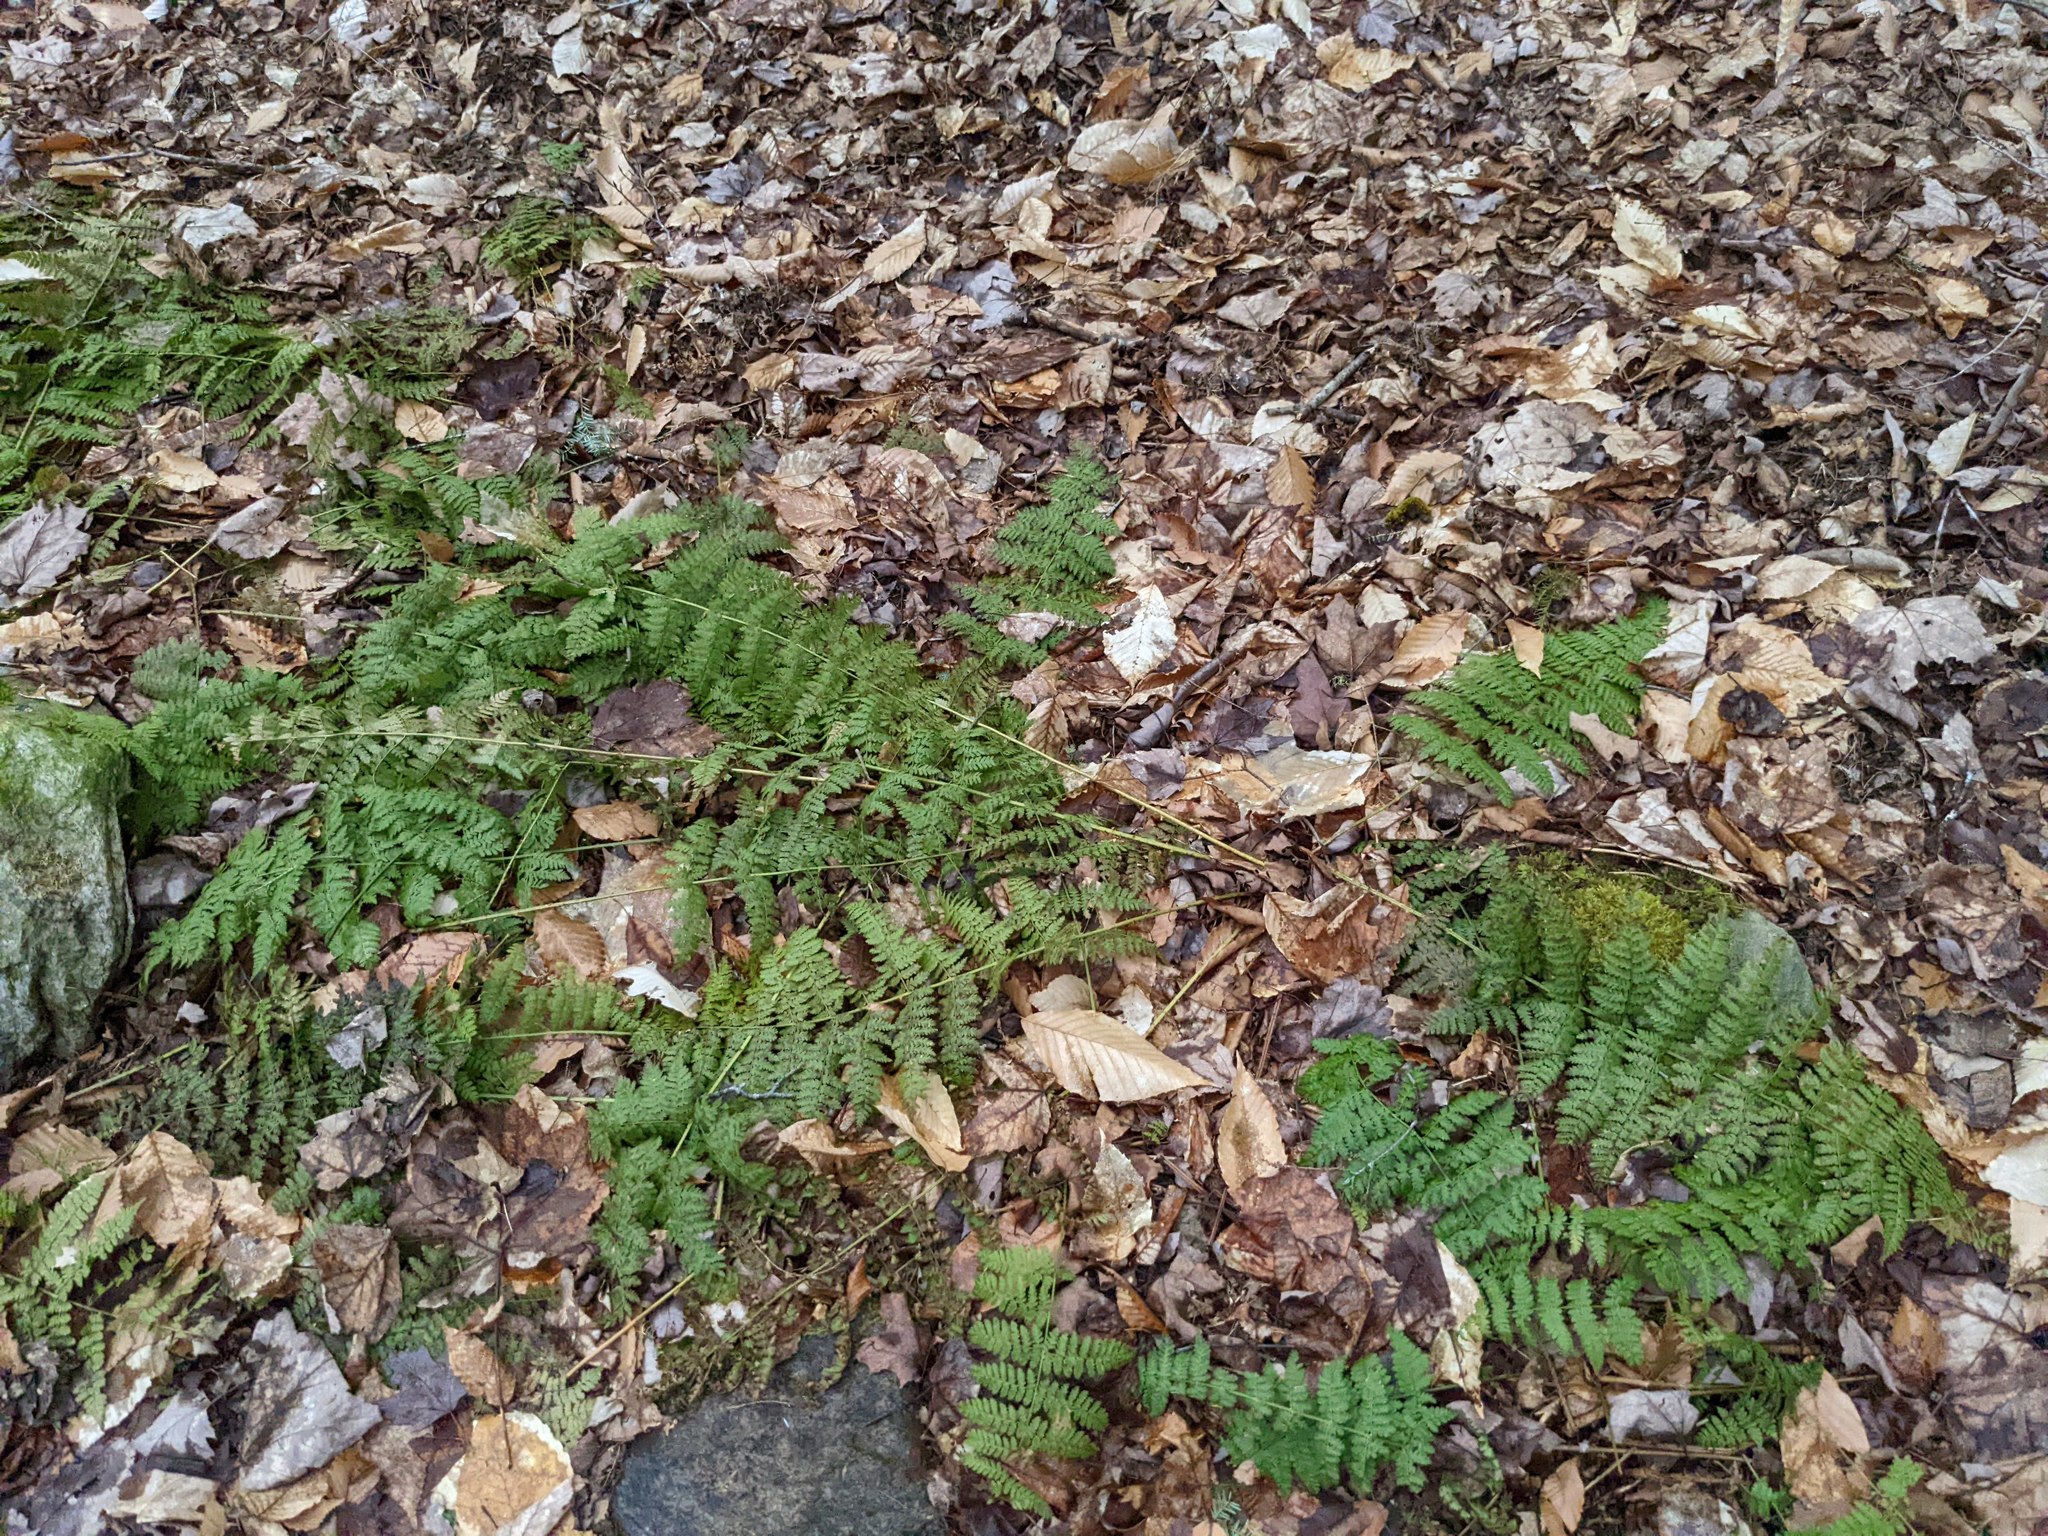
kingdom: Plantae
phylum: Tracheophyta
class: Polypodiopsida
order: Polypodiales
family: Dryopteridaceae
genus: Dryopteris
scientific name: Dryopteris intermedia
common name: Evergreen wood fern
